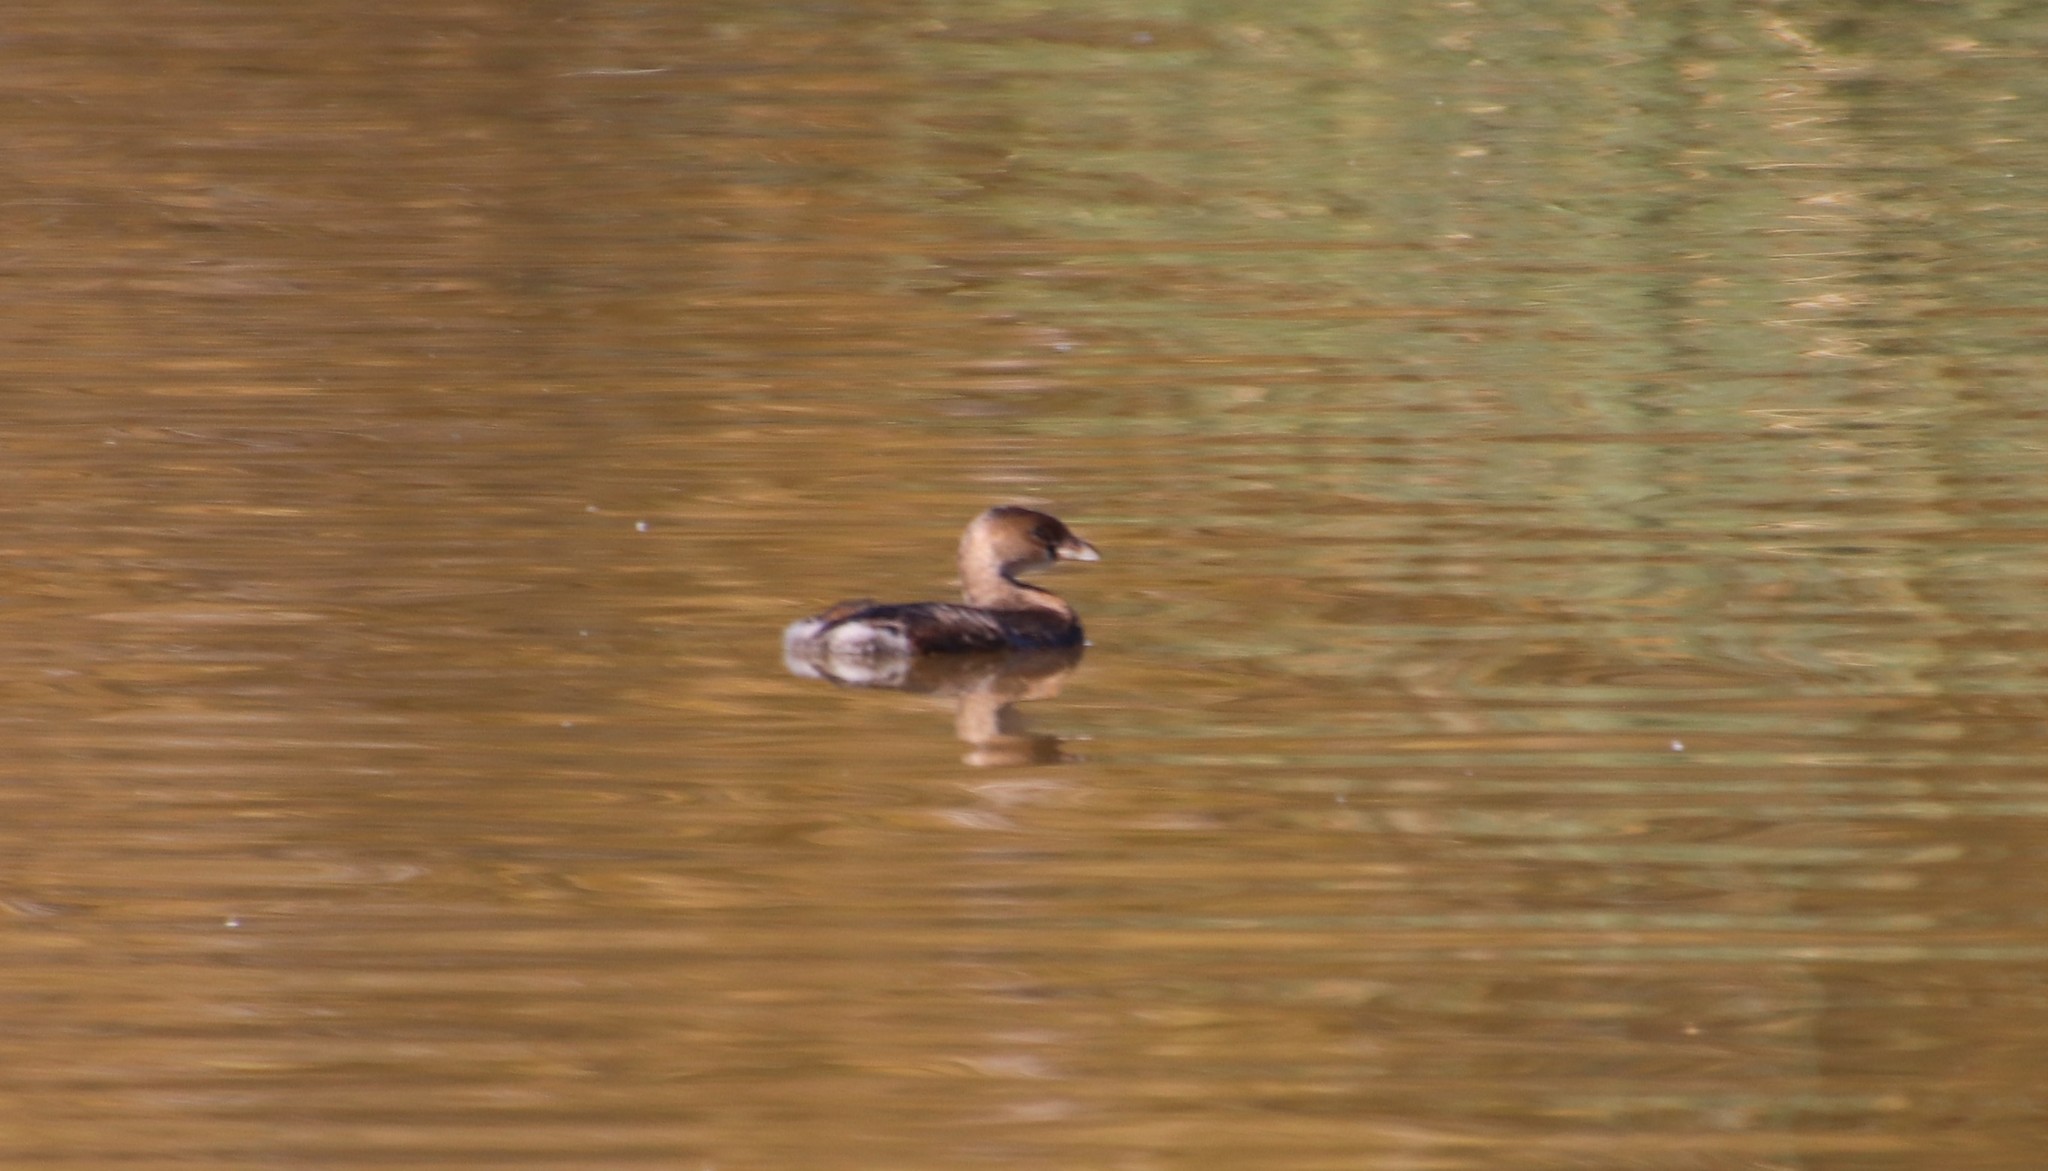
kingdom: Animalia
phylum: Chordata
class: Aves
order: Podicipediformes
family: Podicipedidae
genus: Podilymbus
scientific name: Podilymbus podiceps
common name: Pied-billed grebe
